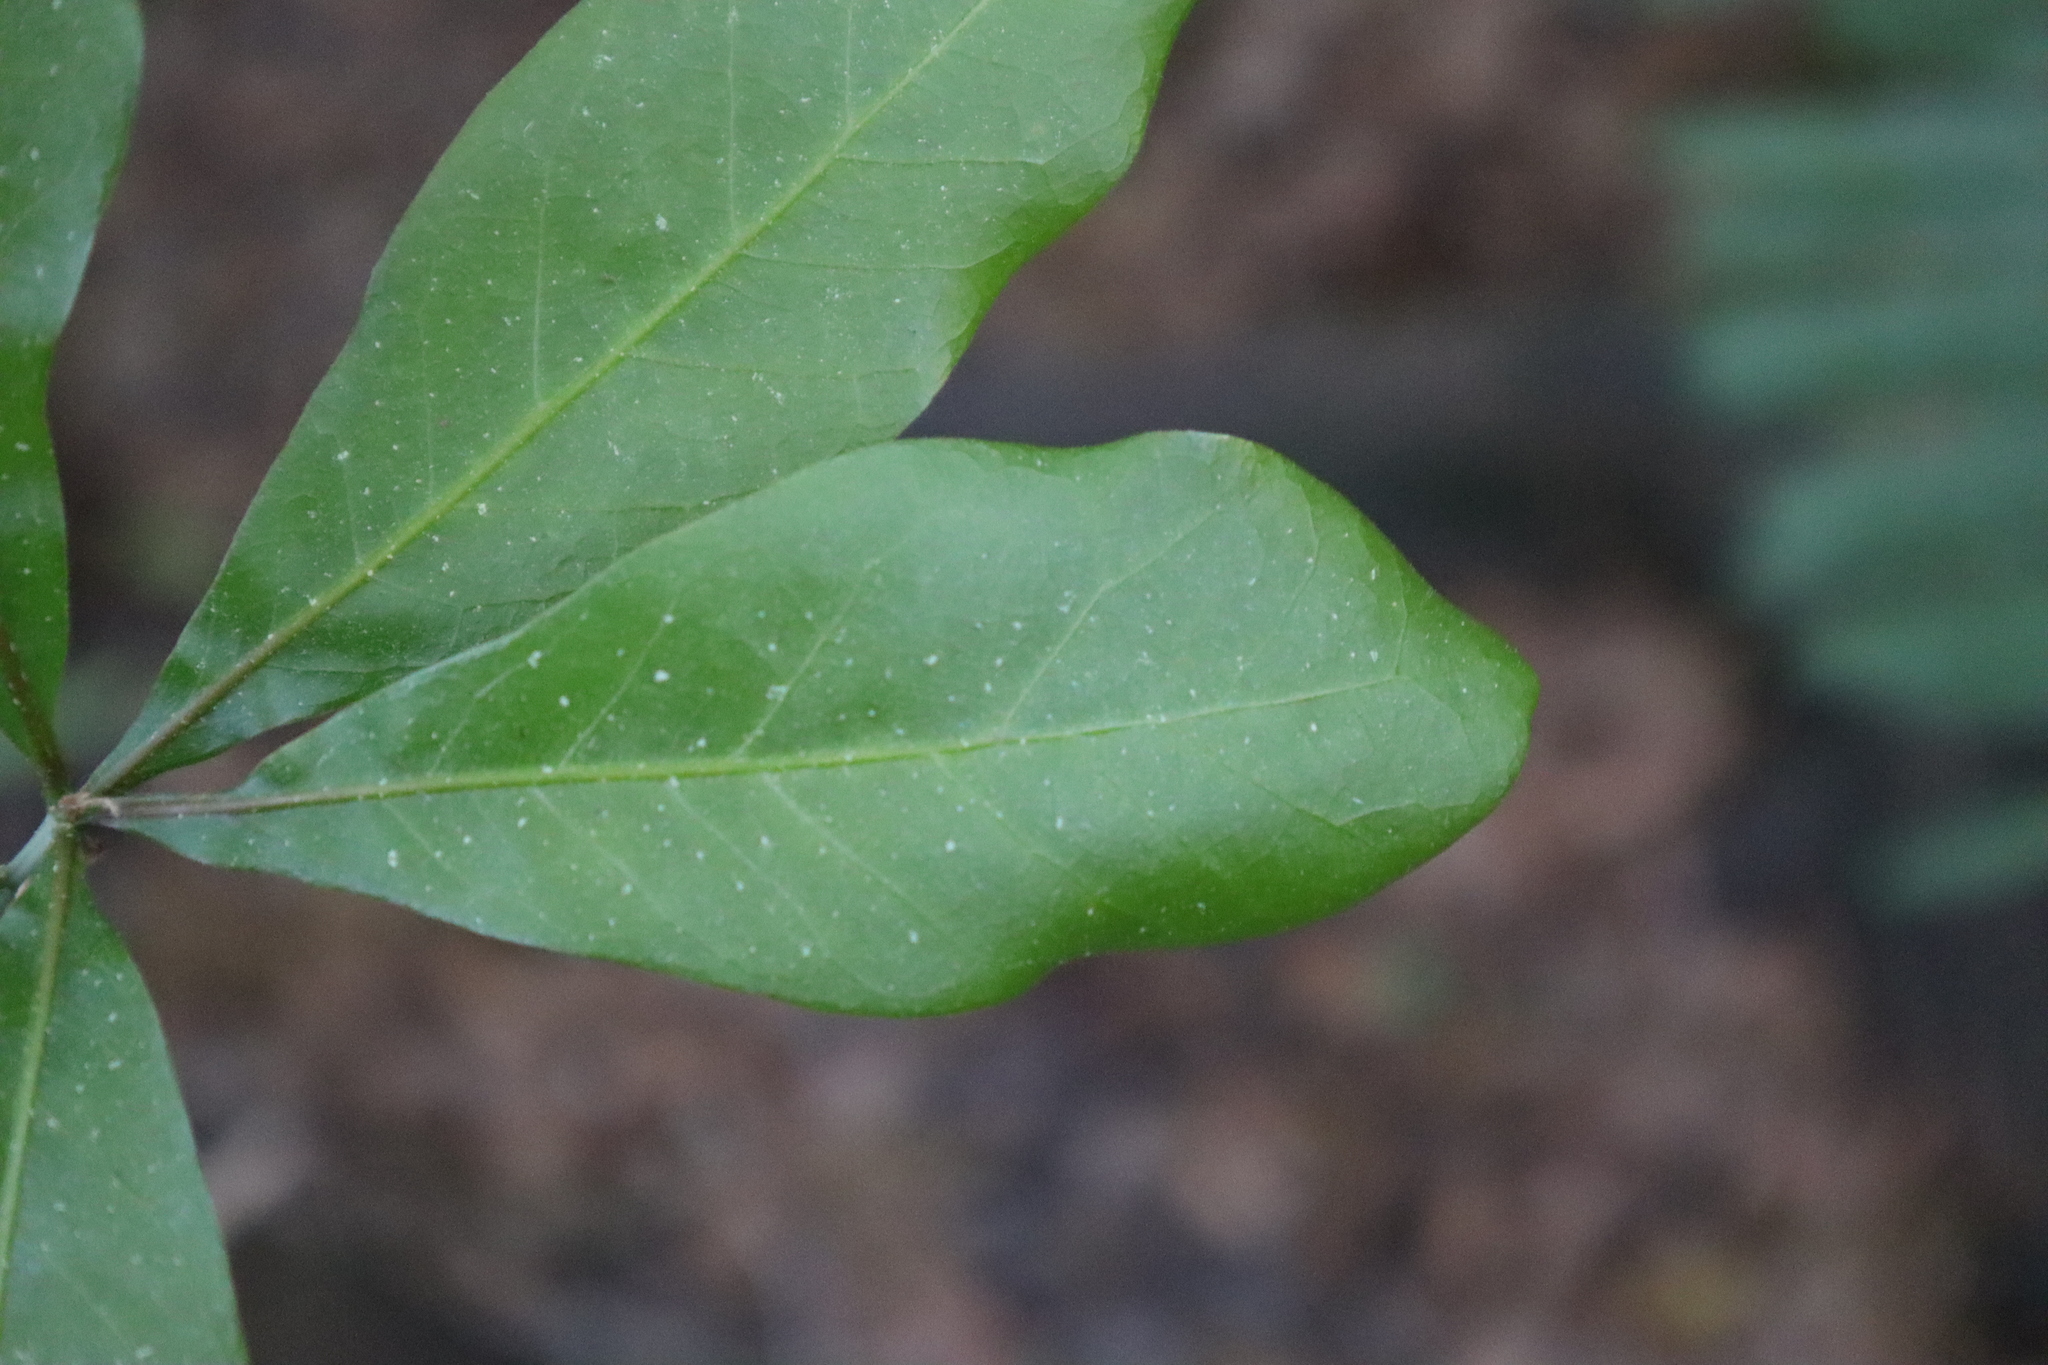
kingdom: Plantae
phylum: Tracheophyta
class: Magnoliopsida
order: Fagales
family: Fagaceae
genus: Quercus
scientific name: Quercus laurifolia
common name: Swamp laurel oak
